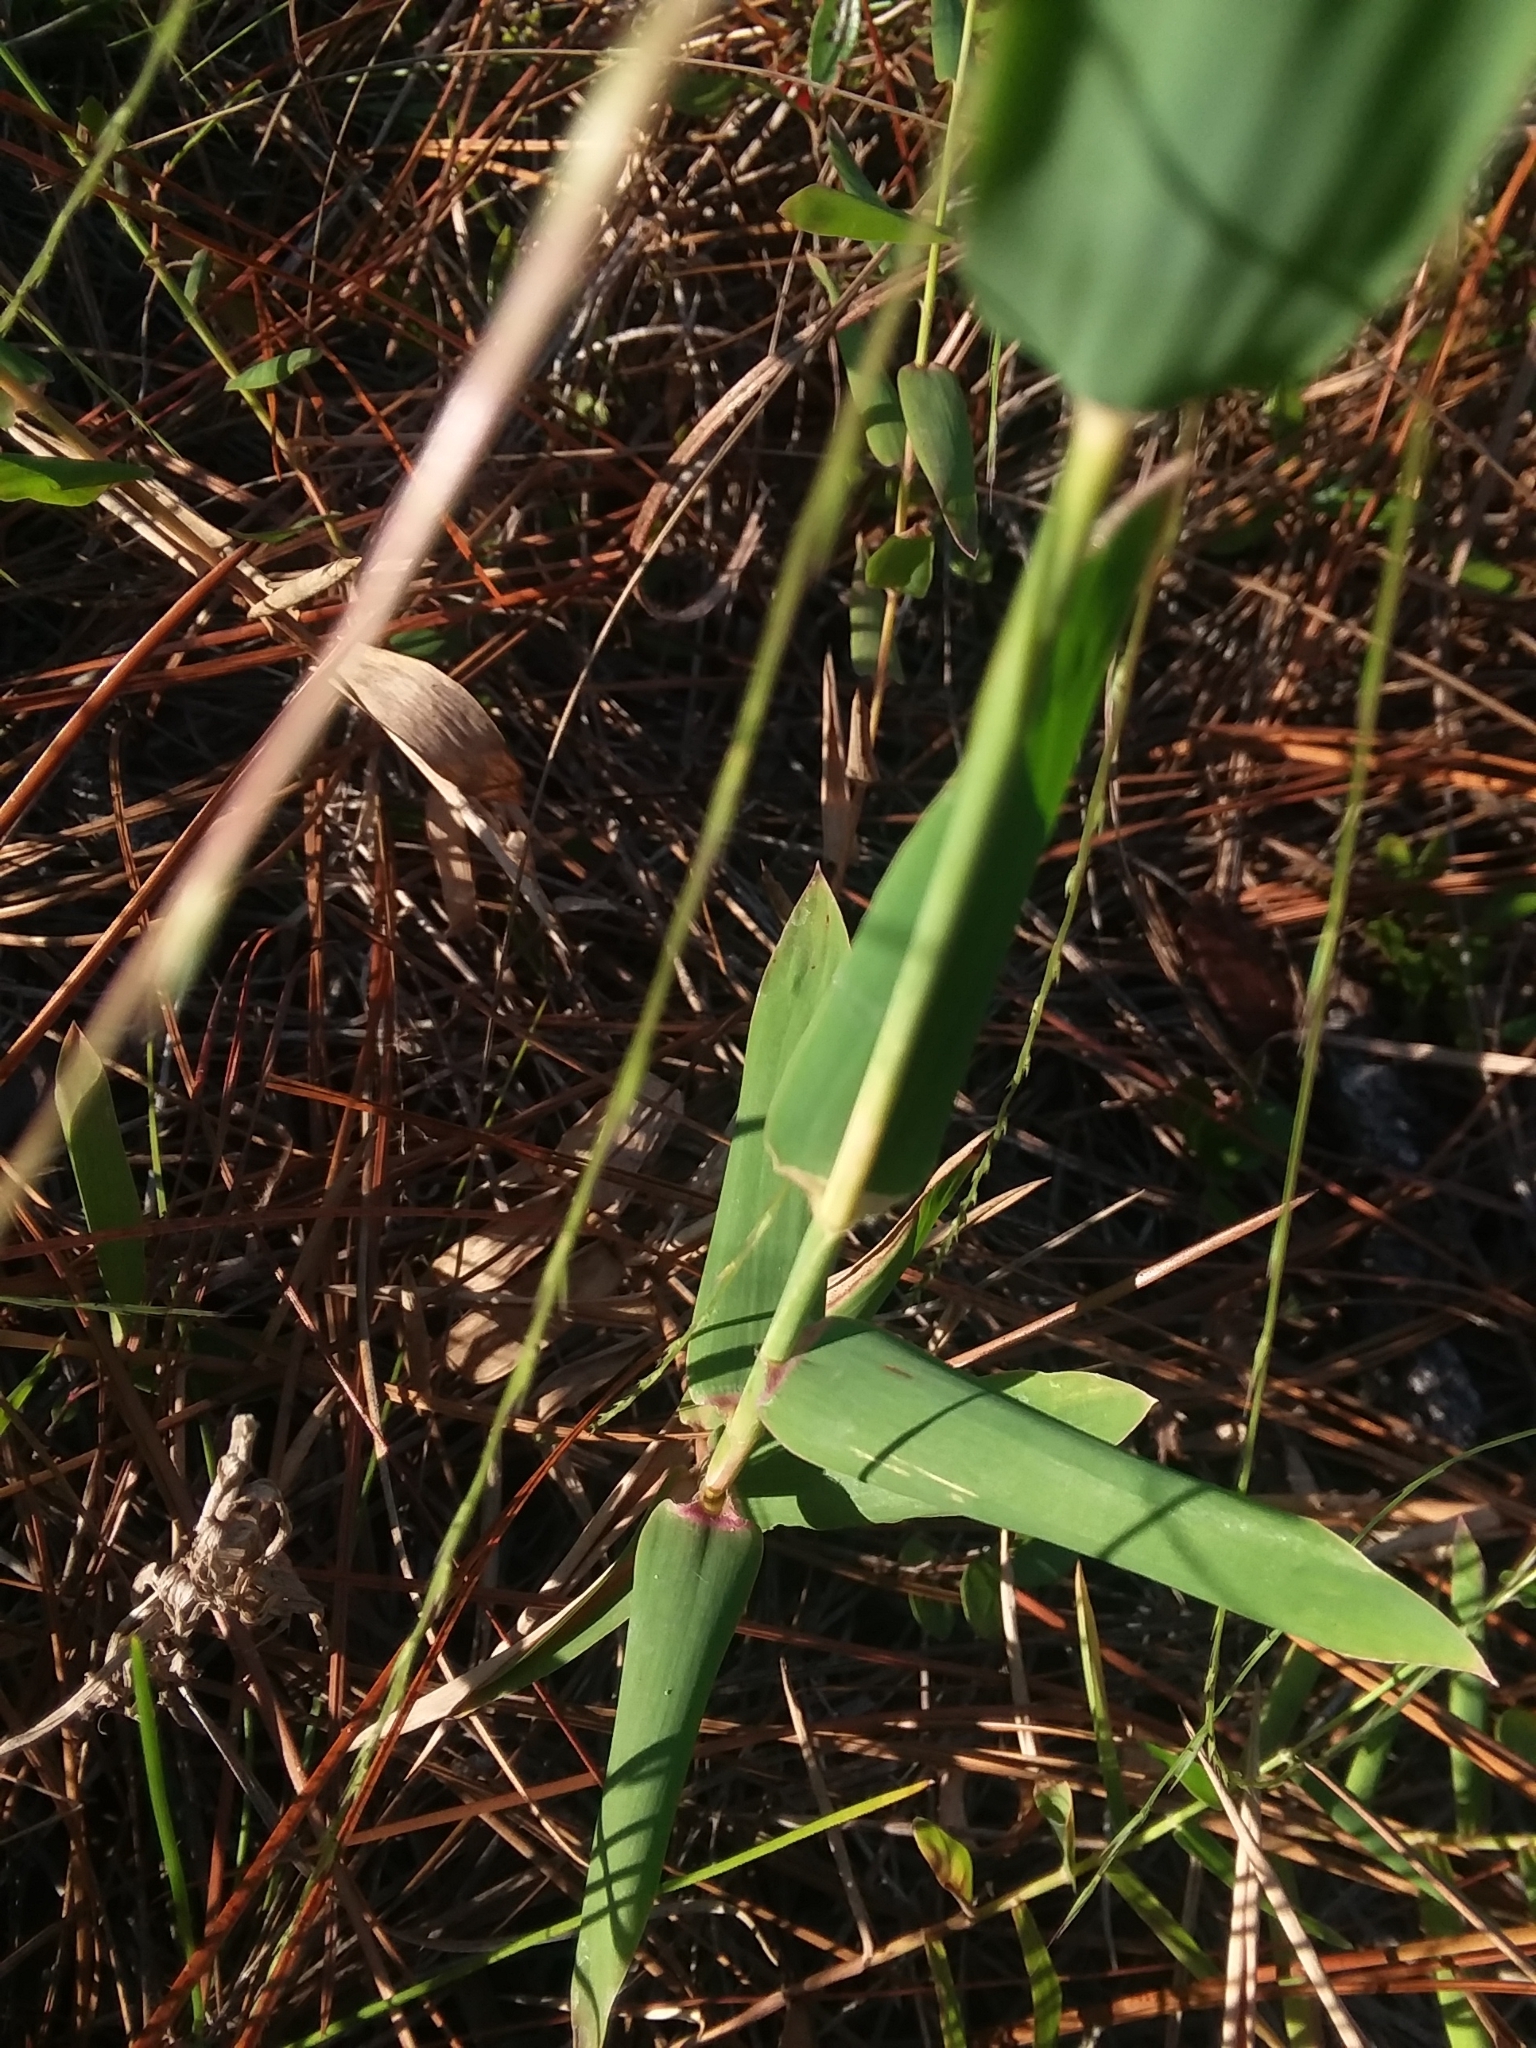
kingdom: Plantae
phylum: Tracheophyta
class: Liliopsida
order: Poales
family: Poaceae
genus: Gymnopogon
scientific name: Gymnopogon ambiguus
